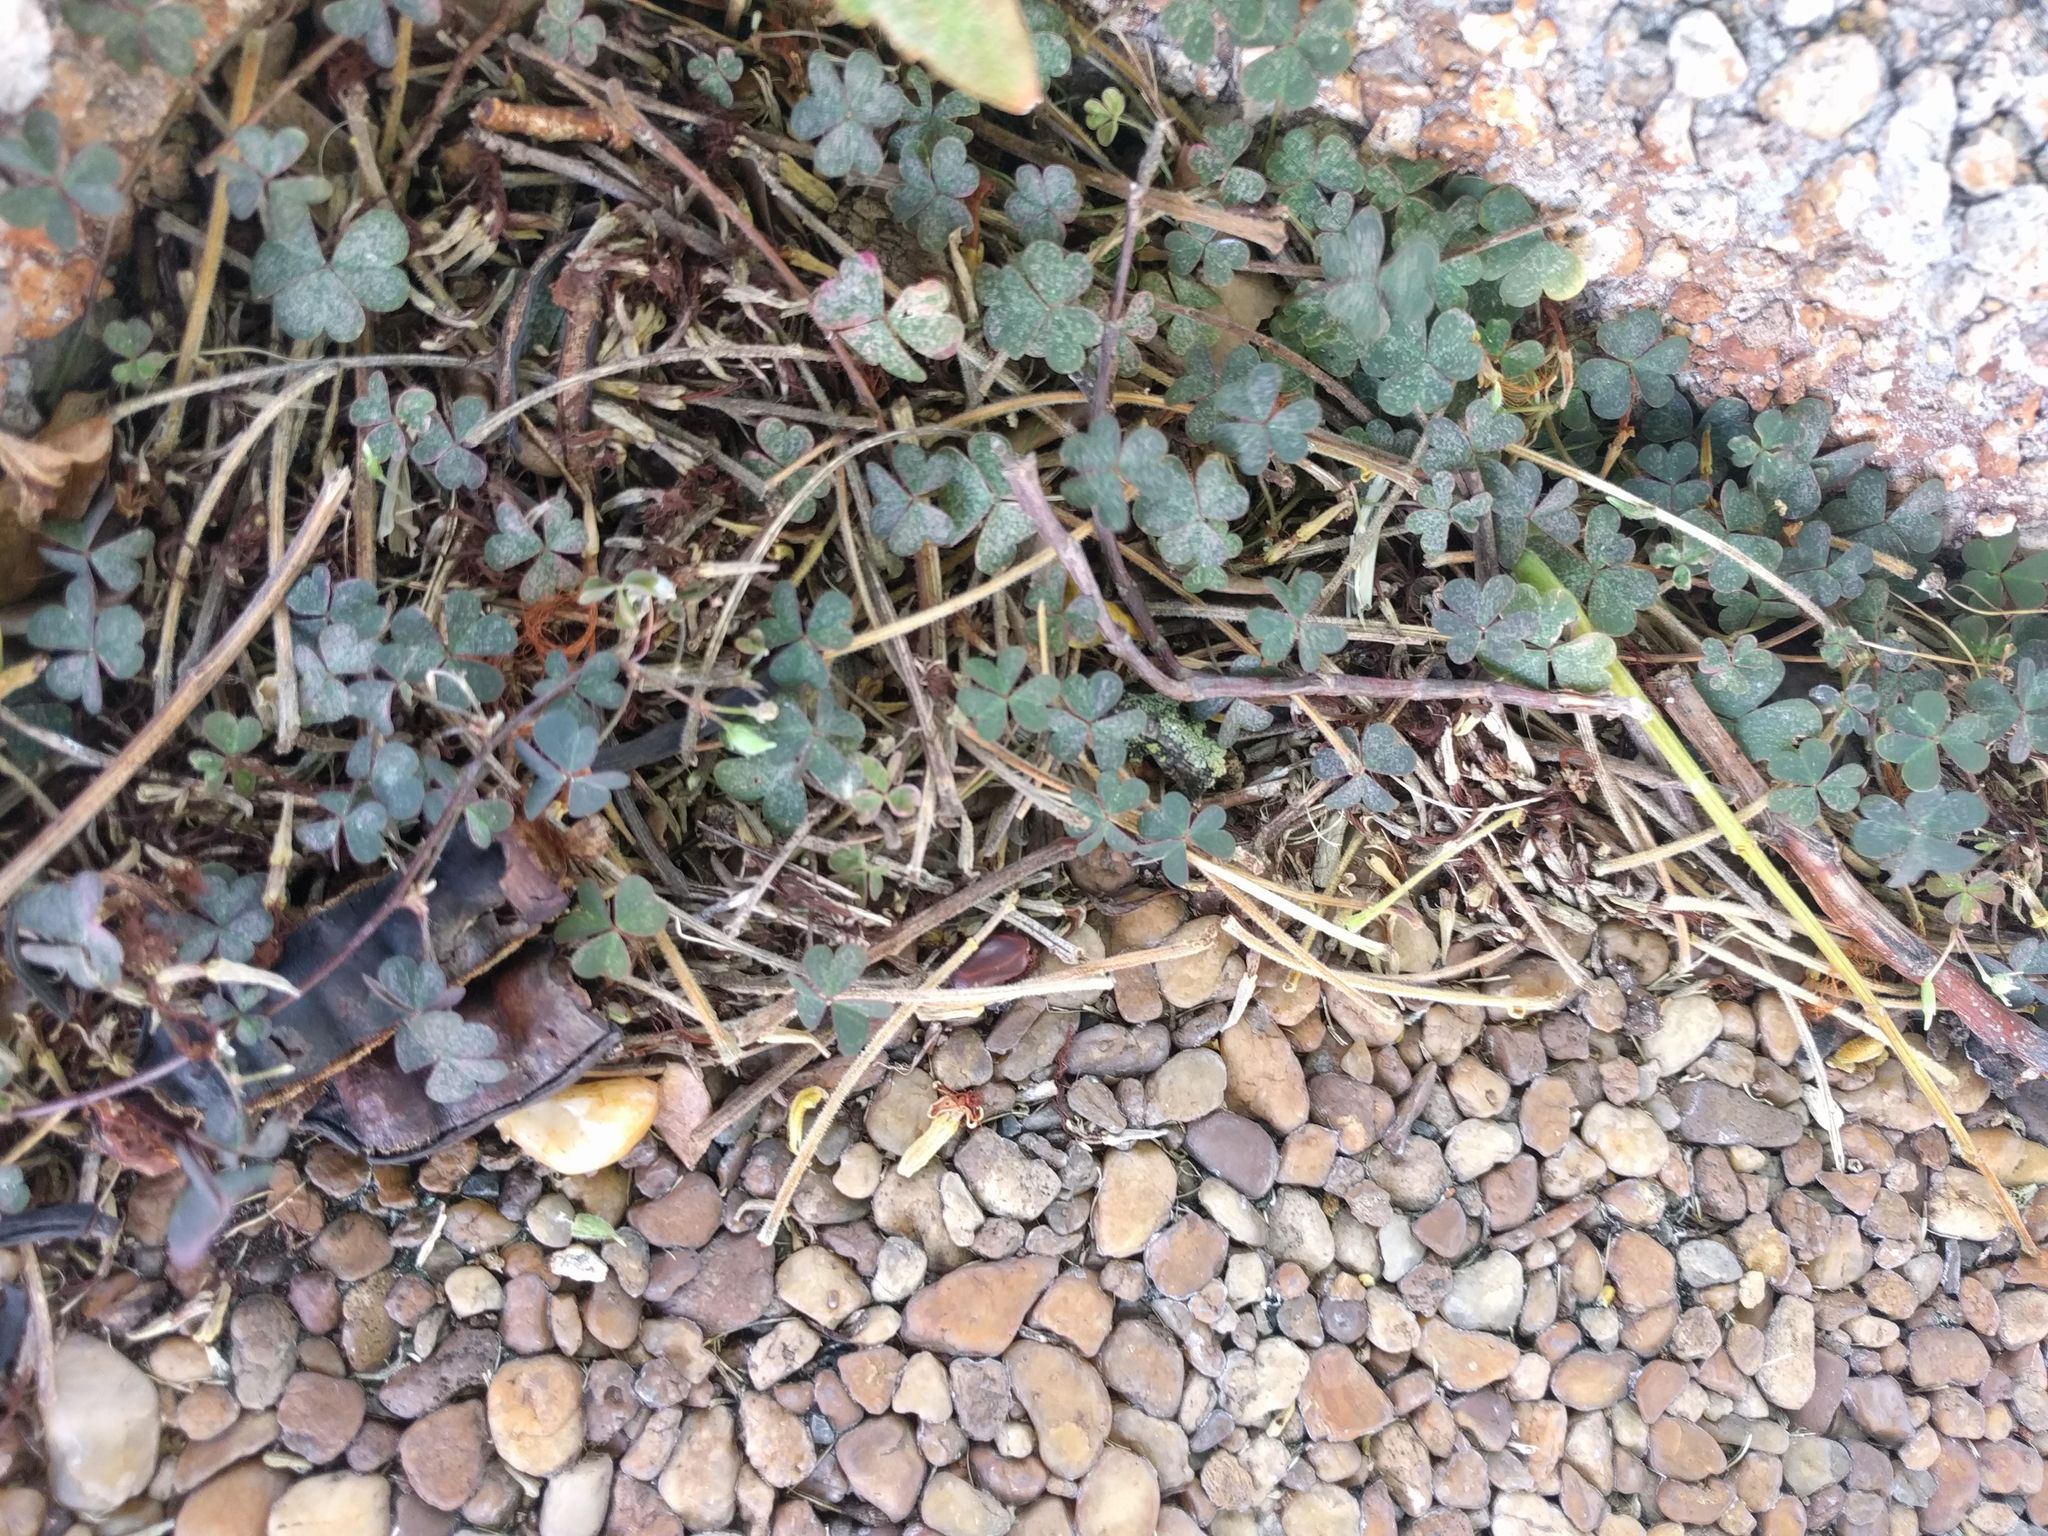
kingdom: Plantae
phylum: Tracheophyta
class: Magnoliopsida
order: Oxalidales
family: Oxalidaceae
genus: Oxalis
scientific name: Oxalis corniculata
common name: Procumbent yellow-sorrel
